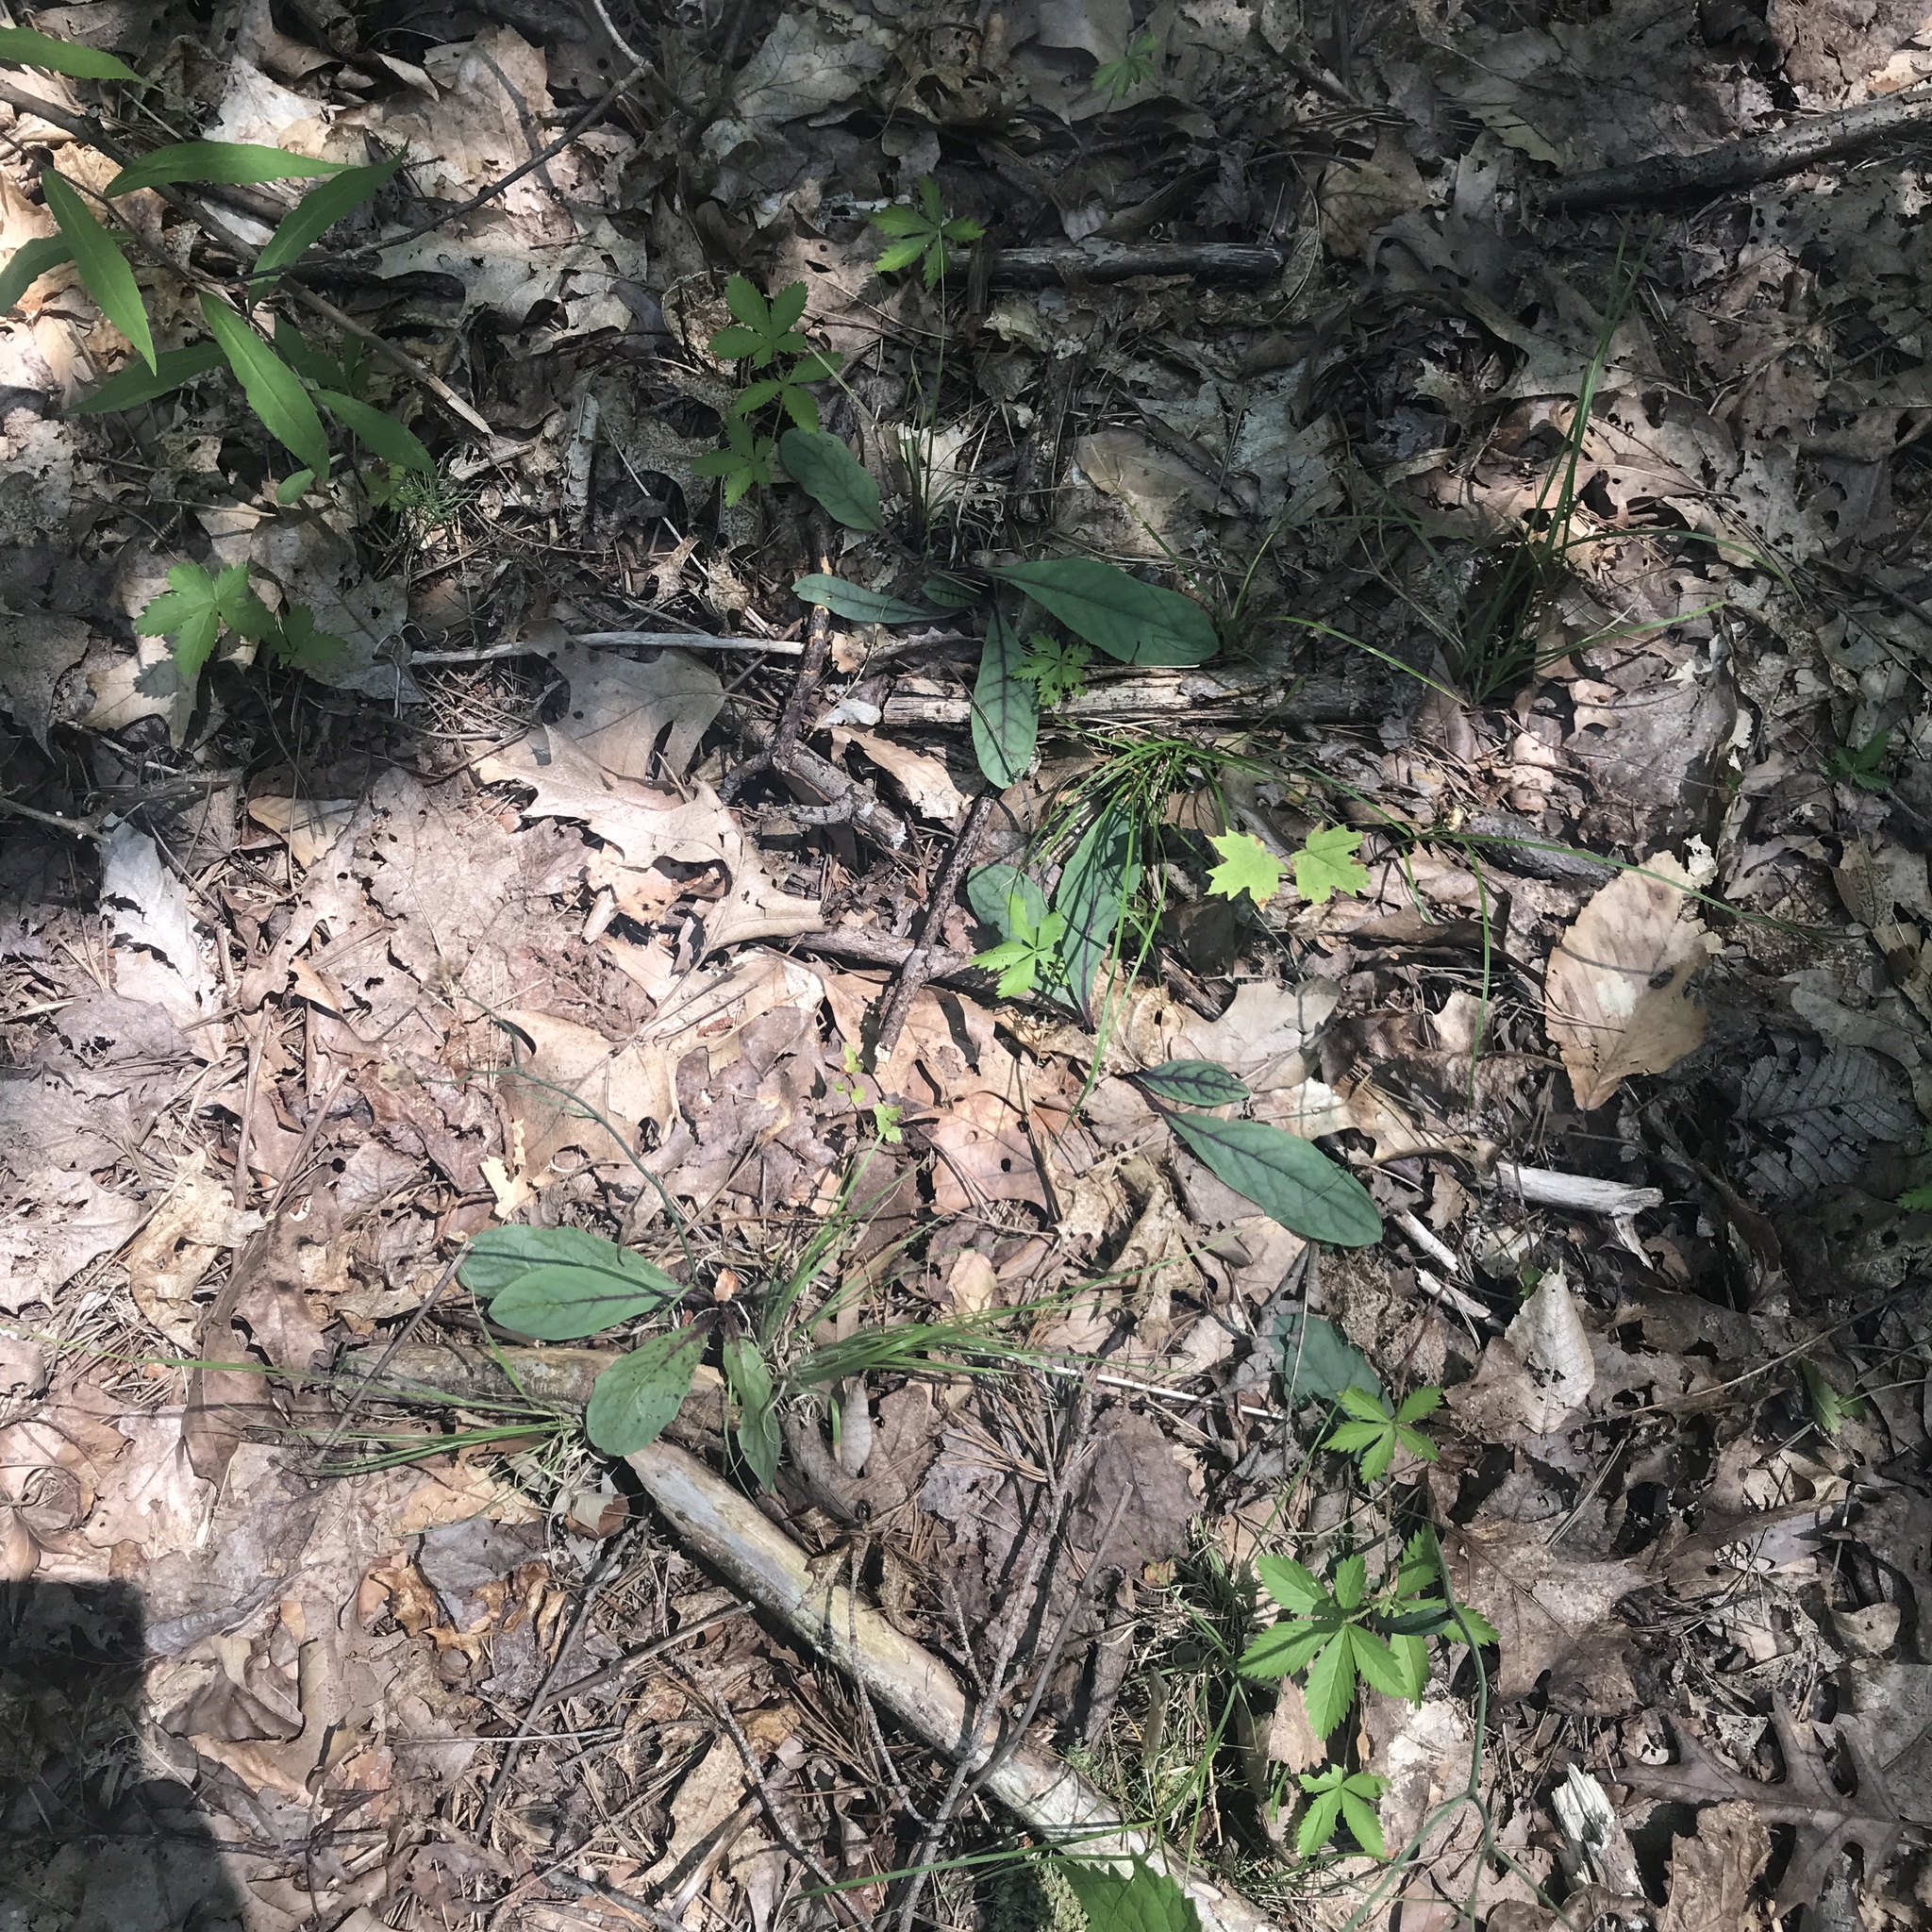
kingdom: Plantae
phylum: Tracheophyta
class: Magnoliopsida
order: Asterales
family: Asteraceae
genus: Hieracium
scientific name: Hieracium venosum
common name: Rattlesnake hawkweed
